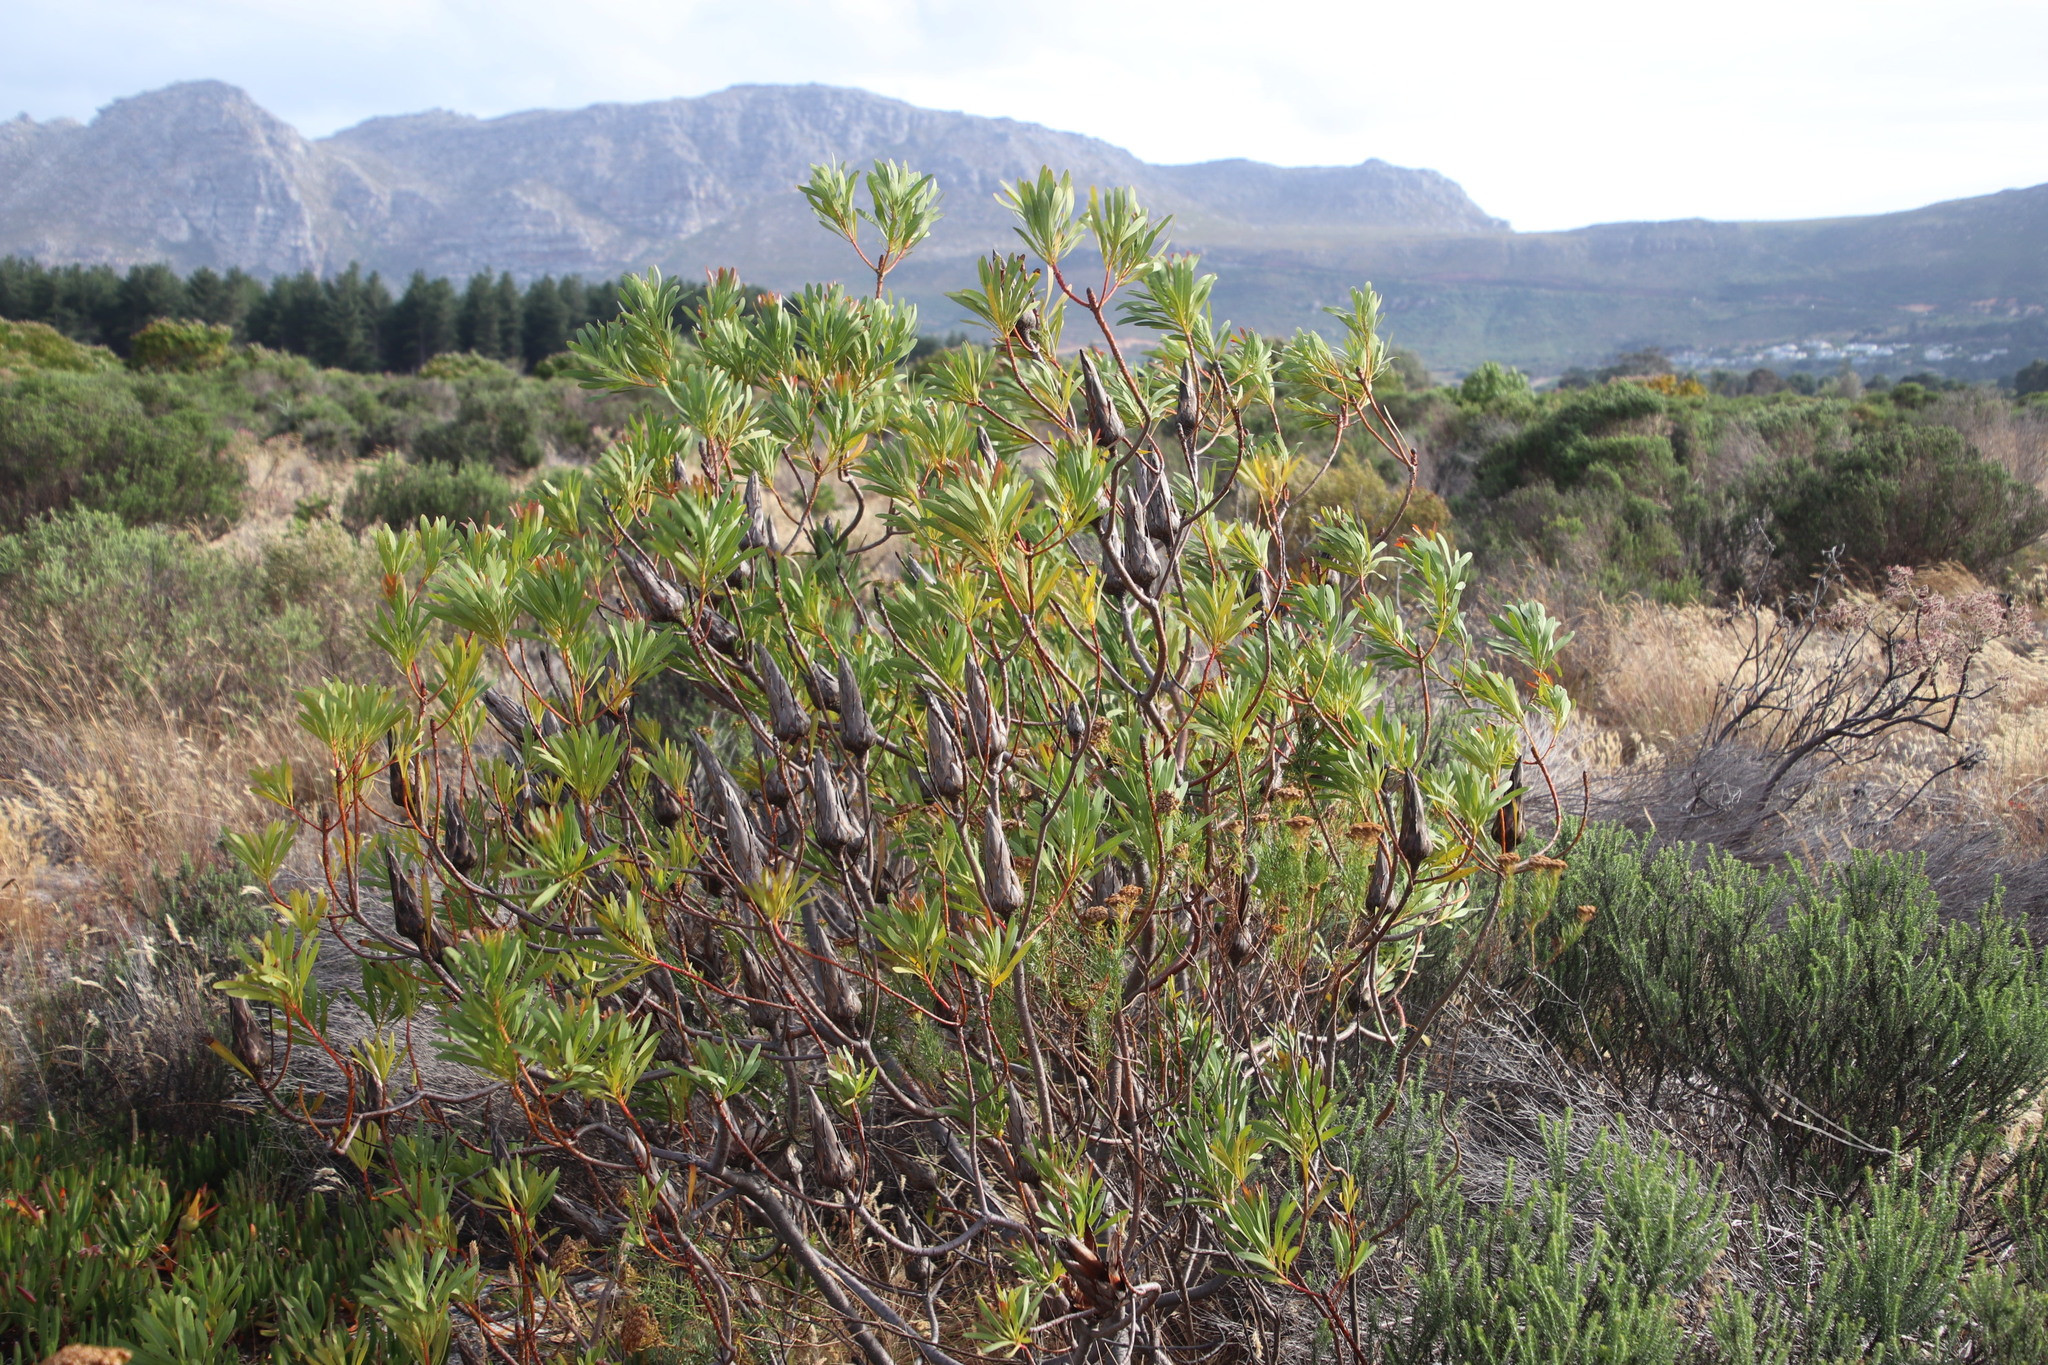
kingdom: Plantae
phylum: Tracheophyta
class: Magnoliopsida
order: Proteales
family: Proteaceae
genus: Protea
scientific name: Protea repens
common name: Sugarbush
